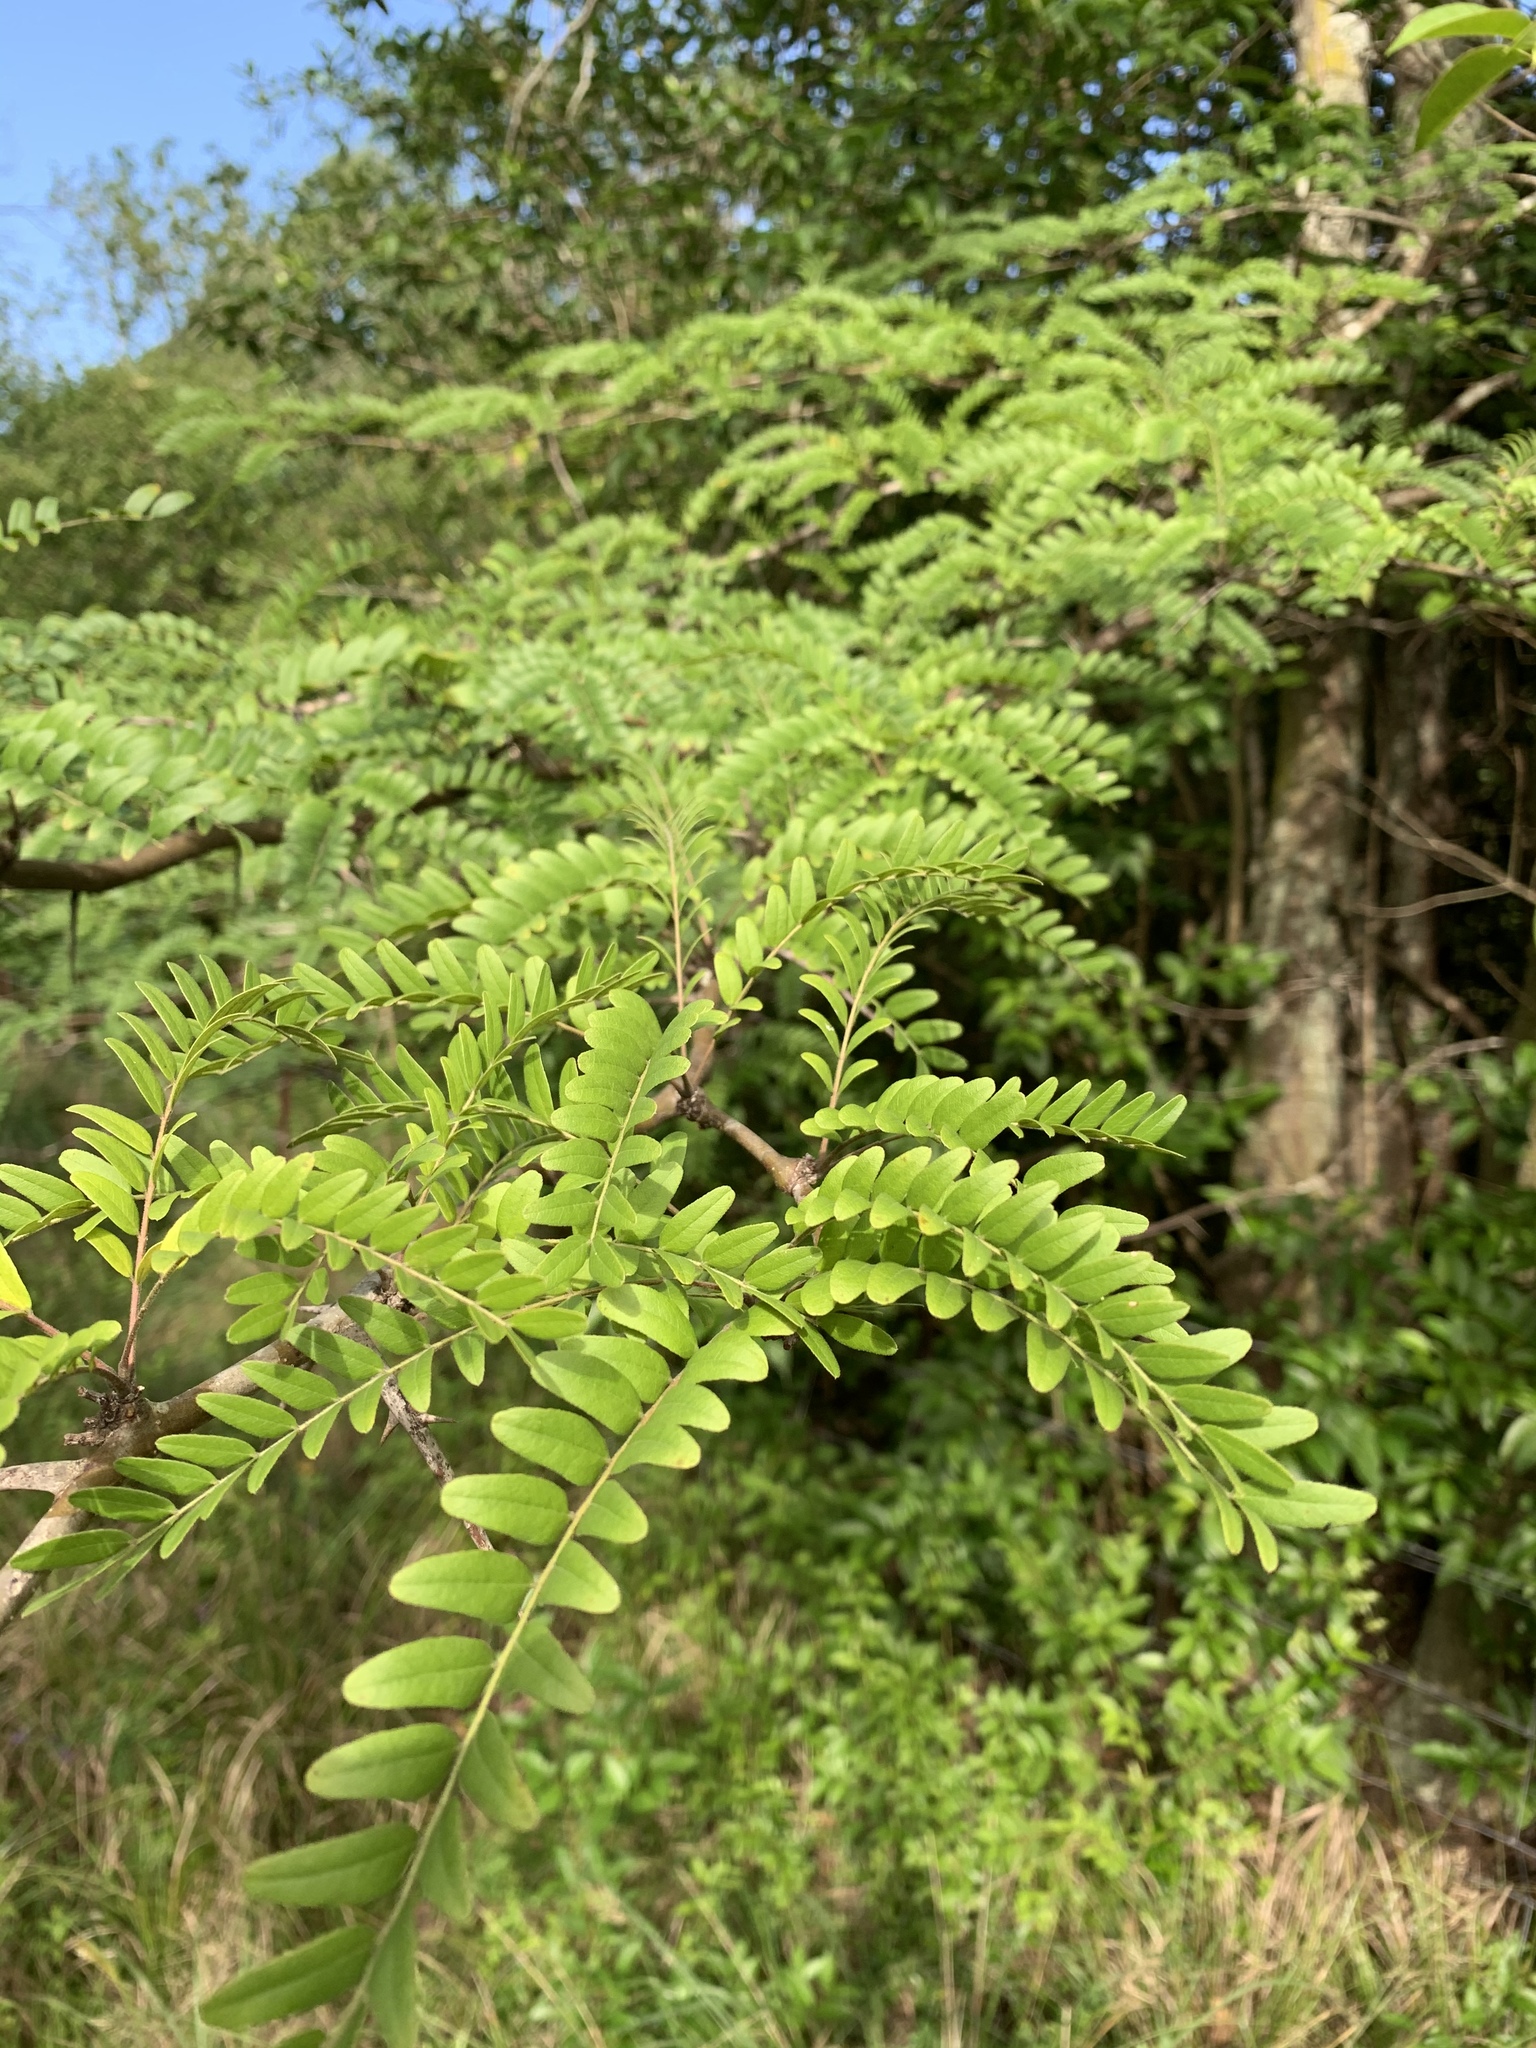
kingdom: Plantae
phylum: Tracheophyta
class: Magnoliopsida
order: Fabales
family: Fabaceae
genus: Gleditsia
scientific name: Gleditsia triacanthos
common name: Common honeylocust
